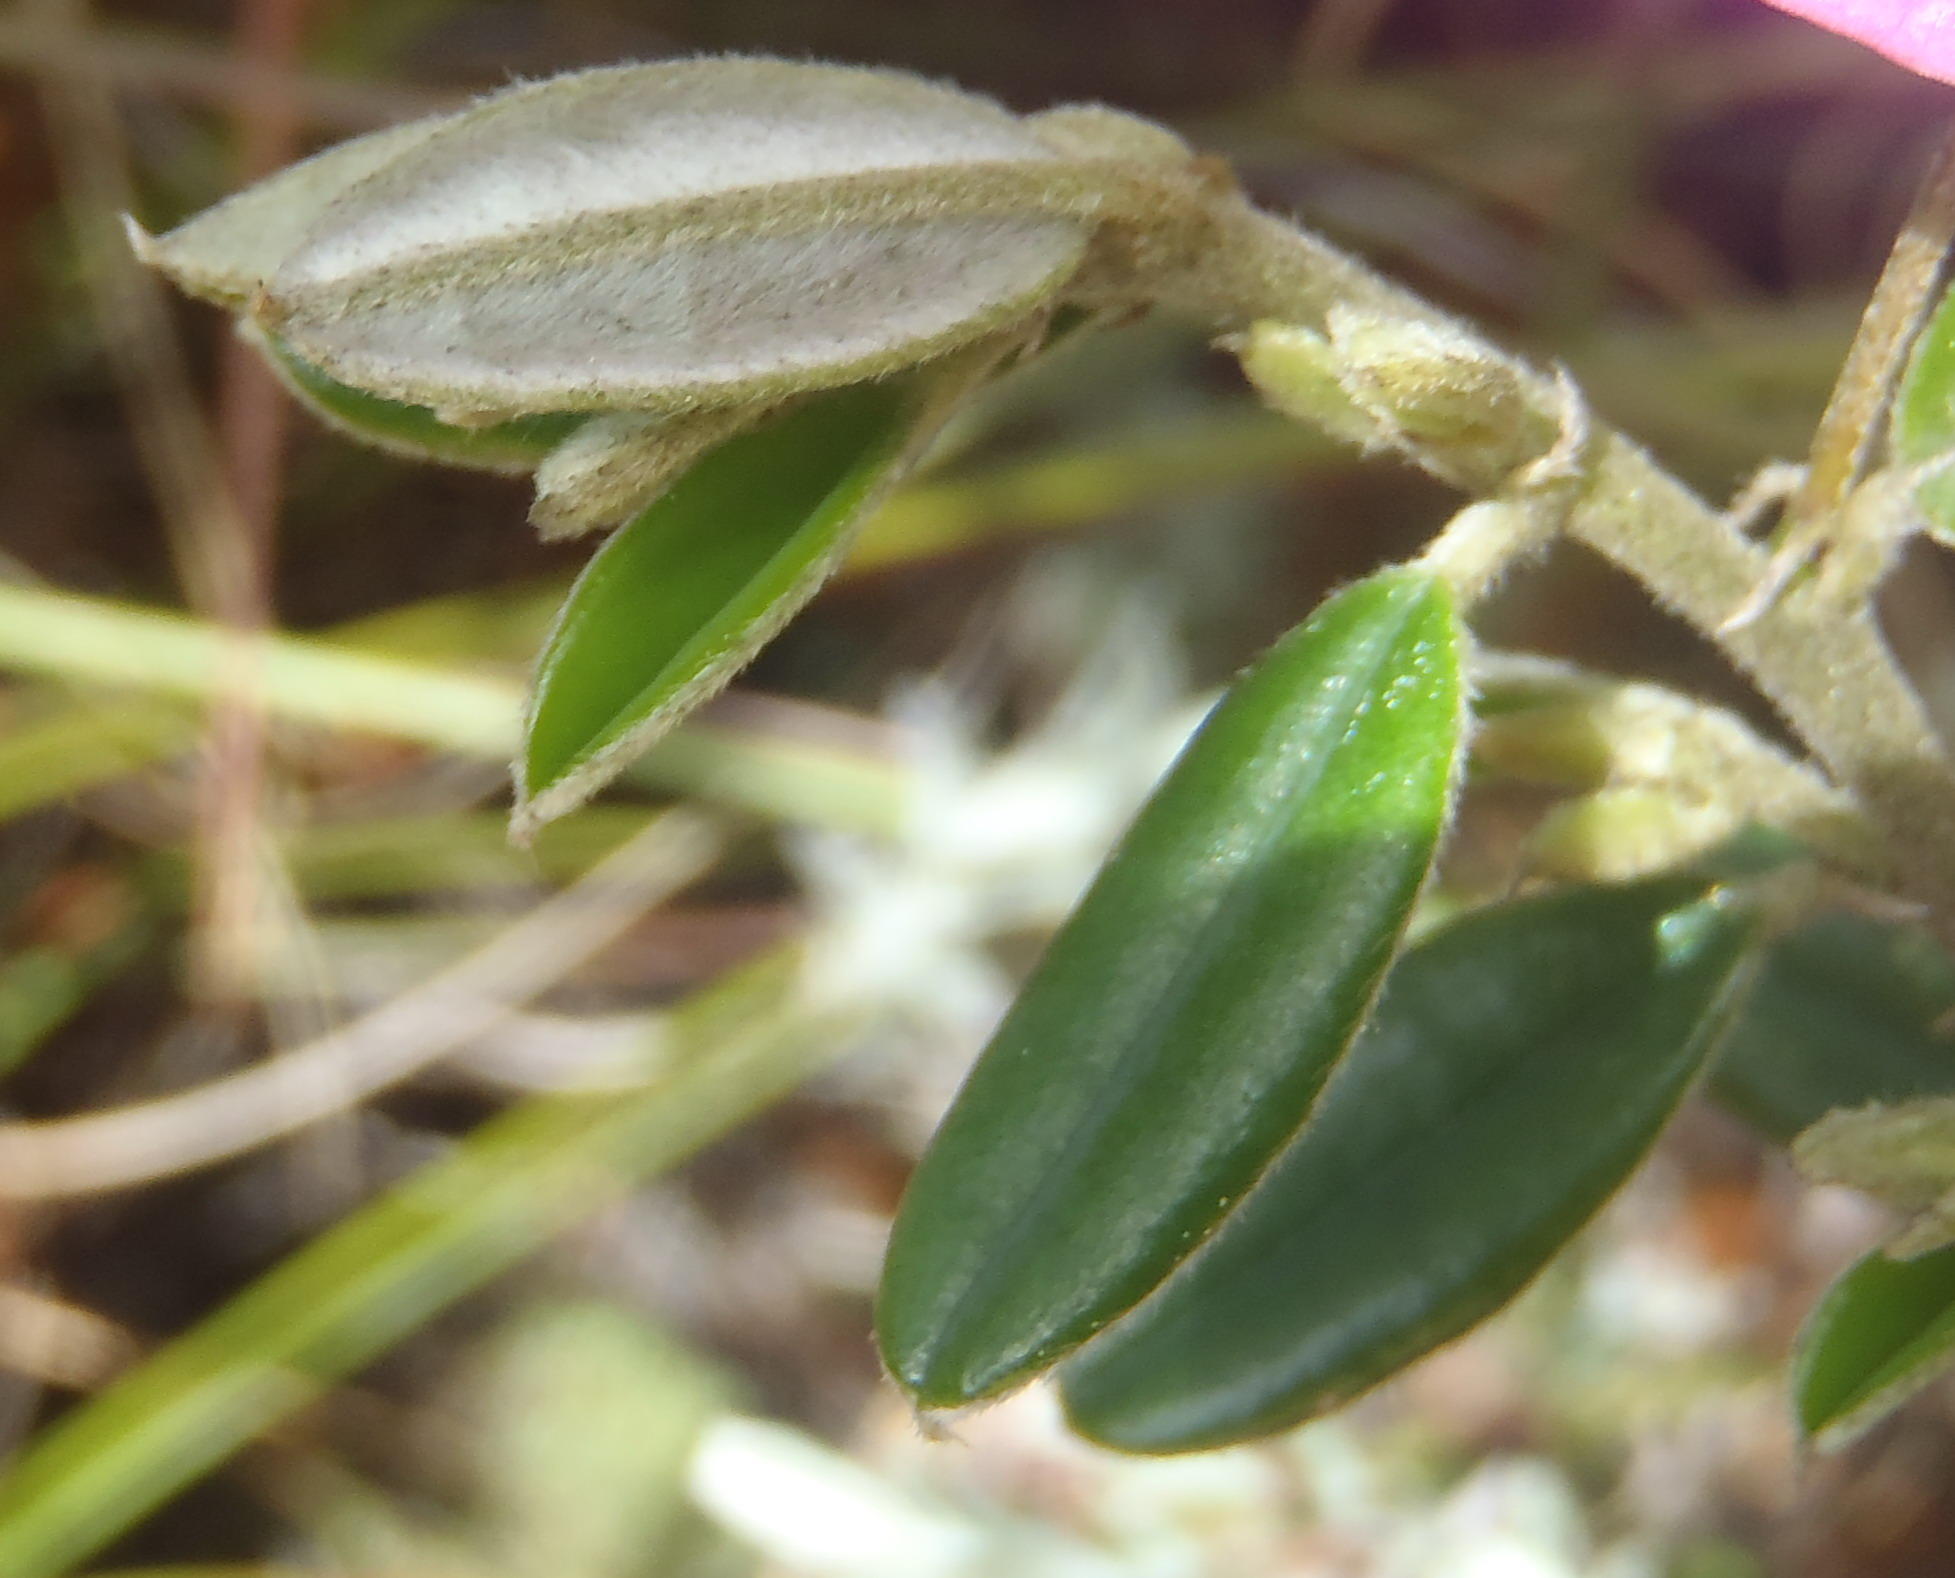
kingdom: Plantae
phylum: Tracheophyta
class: Magnoliopsida
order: Fabales
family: Fabaceae
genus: Podalyria
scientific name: Podalyria buxifolia
